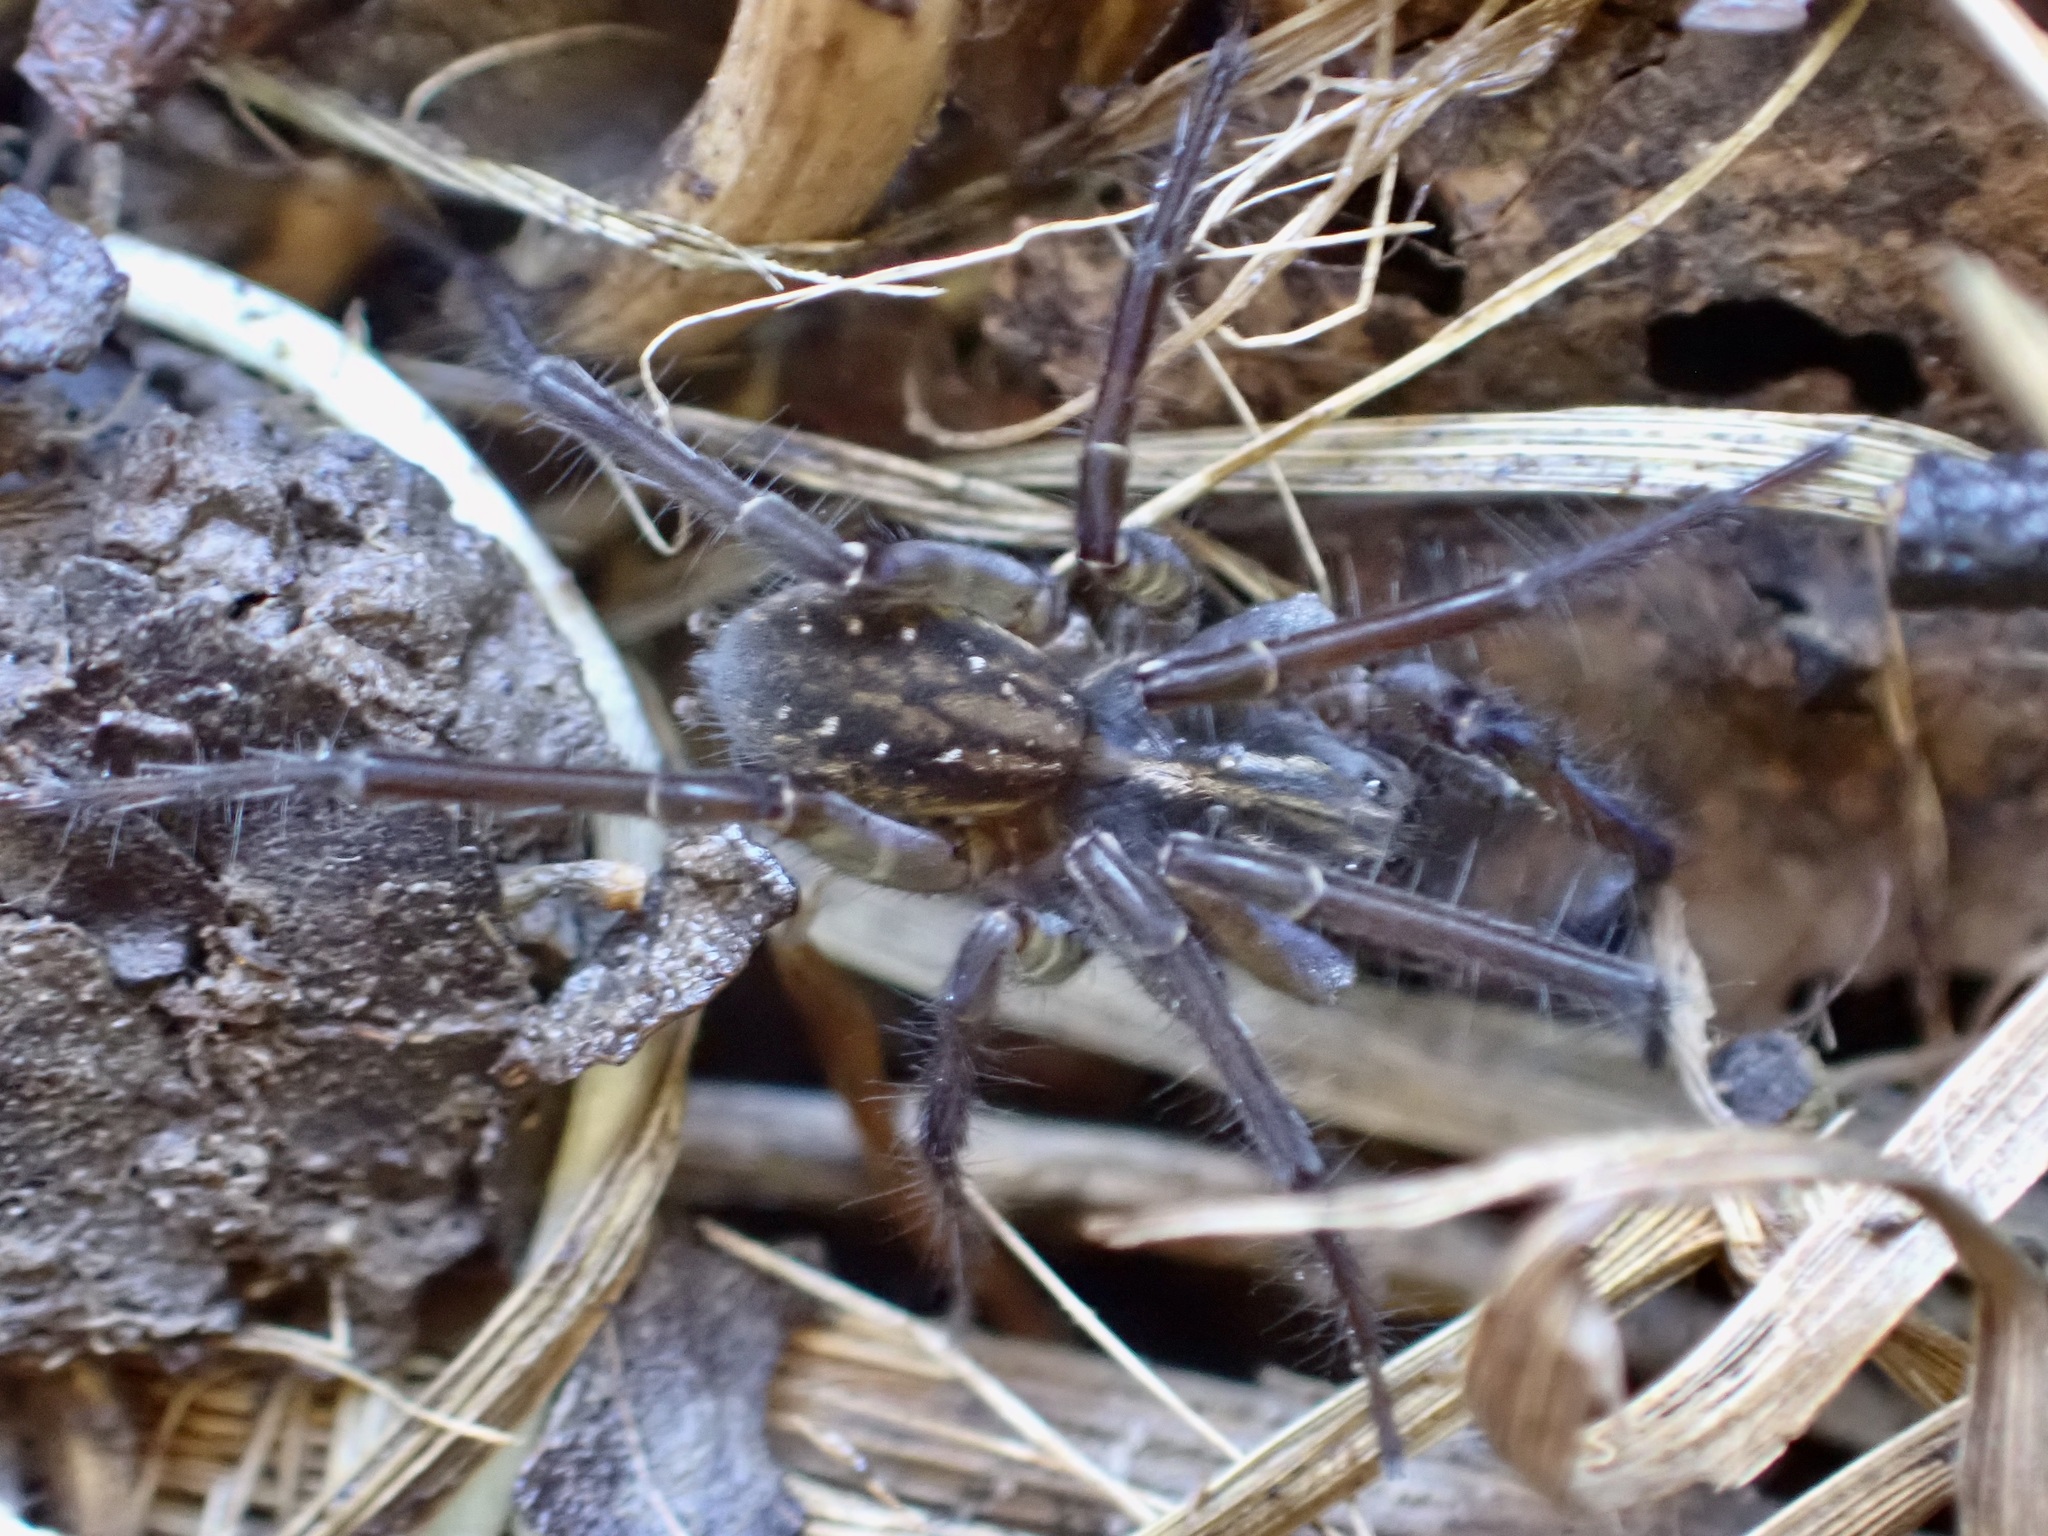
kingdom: Animalia
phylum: Arthropoda
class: Arachnida
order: Araneae
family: Lycosidae
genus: Allotrochosina
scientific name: Allotrochosina schauinslandi
